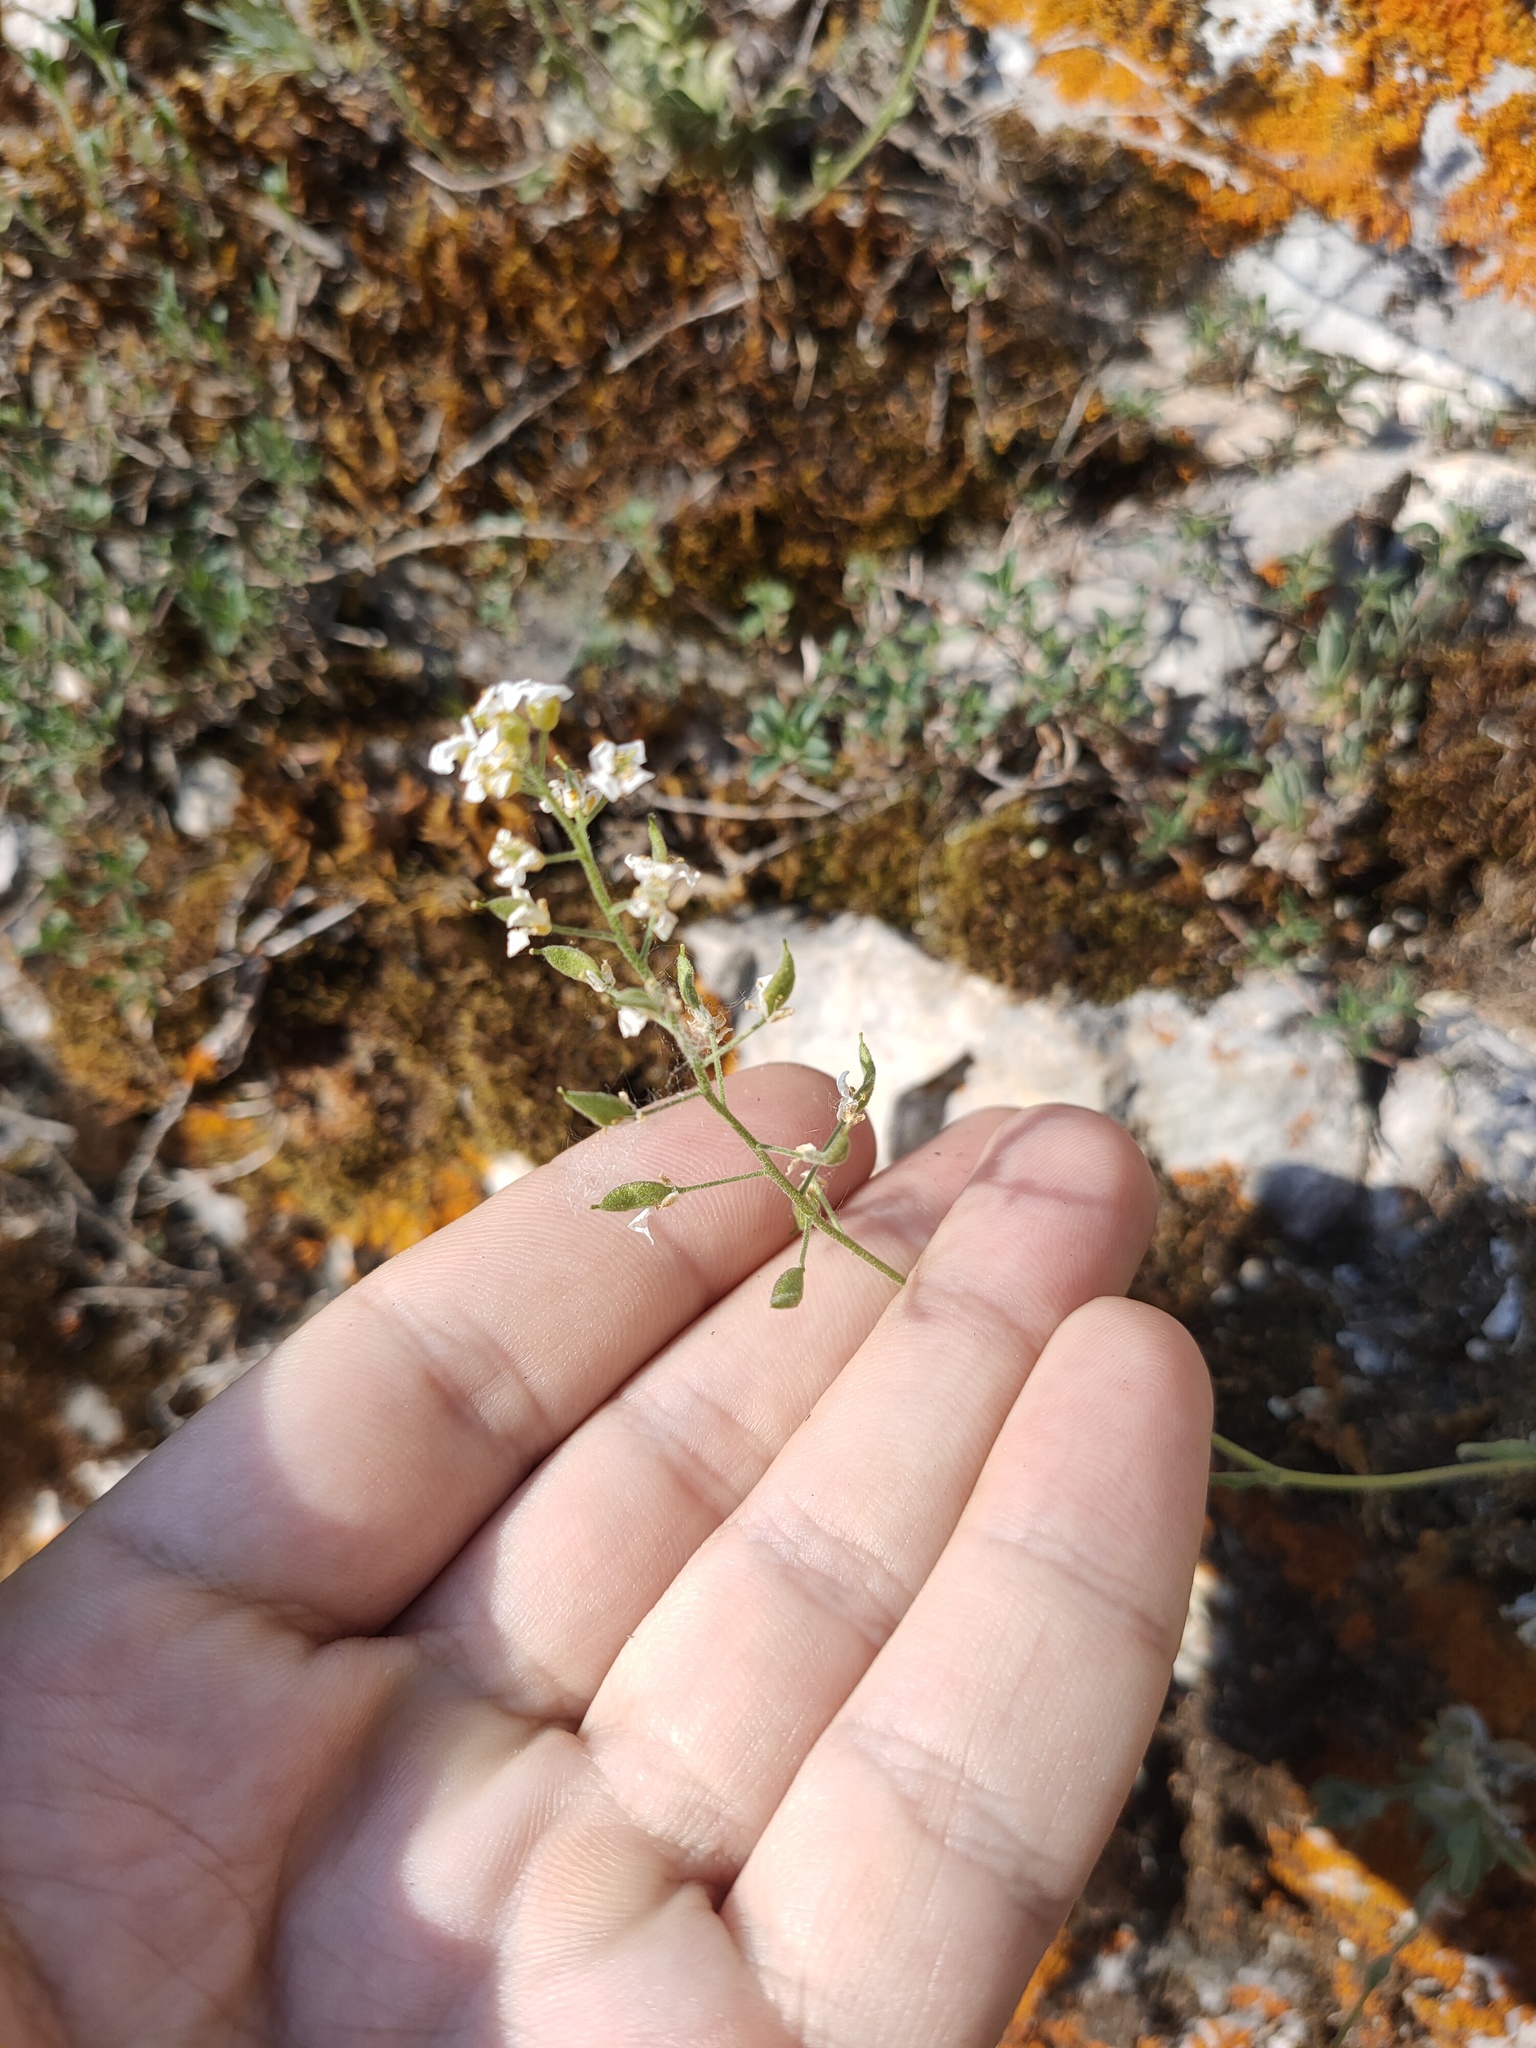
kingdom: Plantae
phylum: Tracheophyta
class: Magnoliopsida
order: Brassicales
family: Brassicaceae
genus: Draba
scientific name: Draba hyperborea
